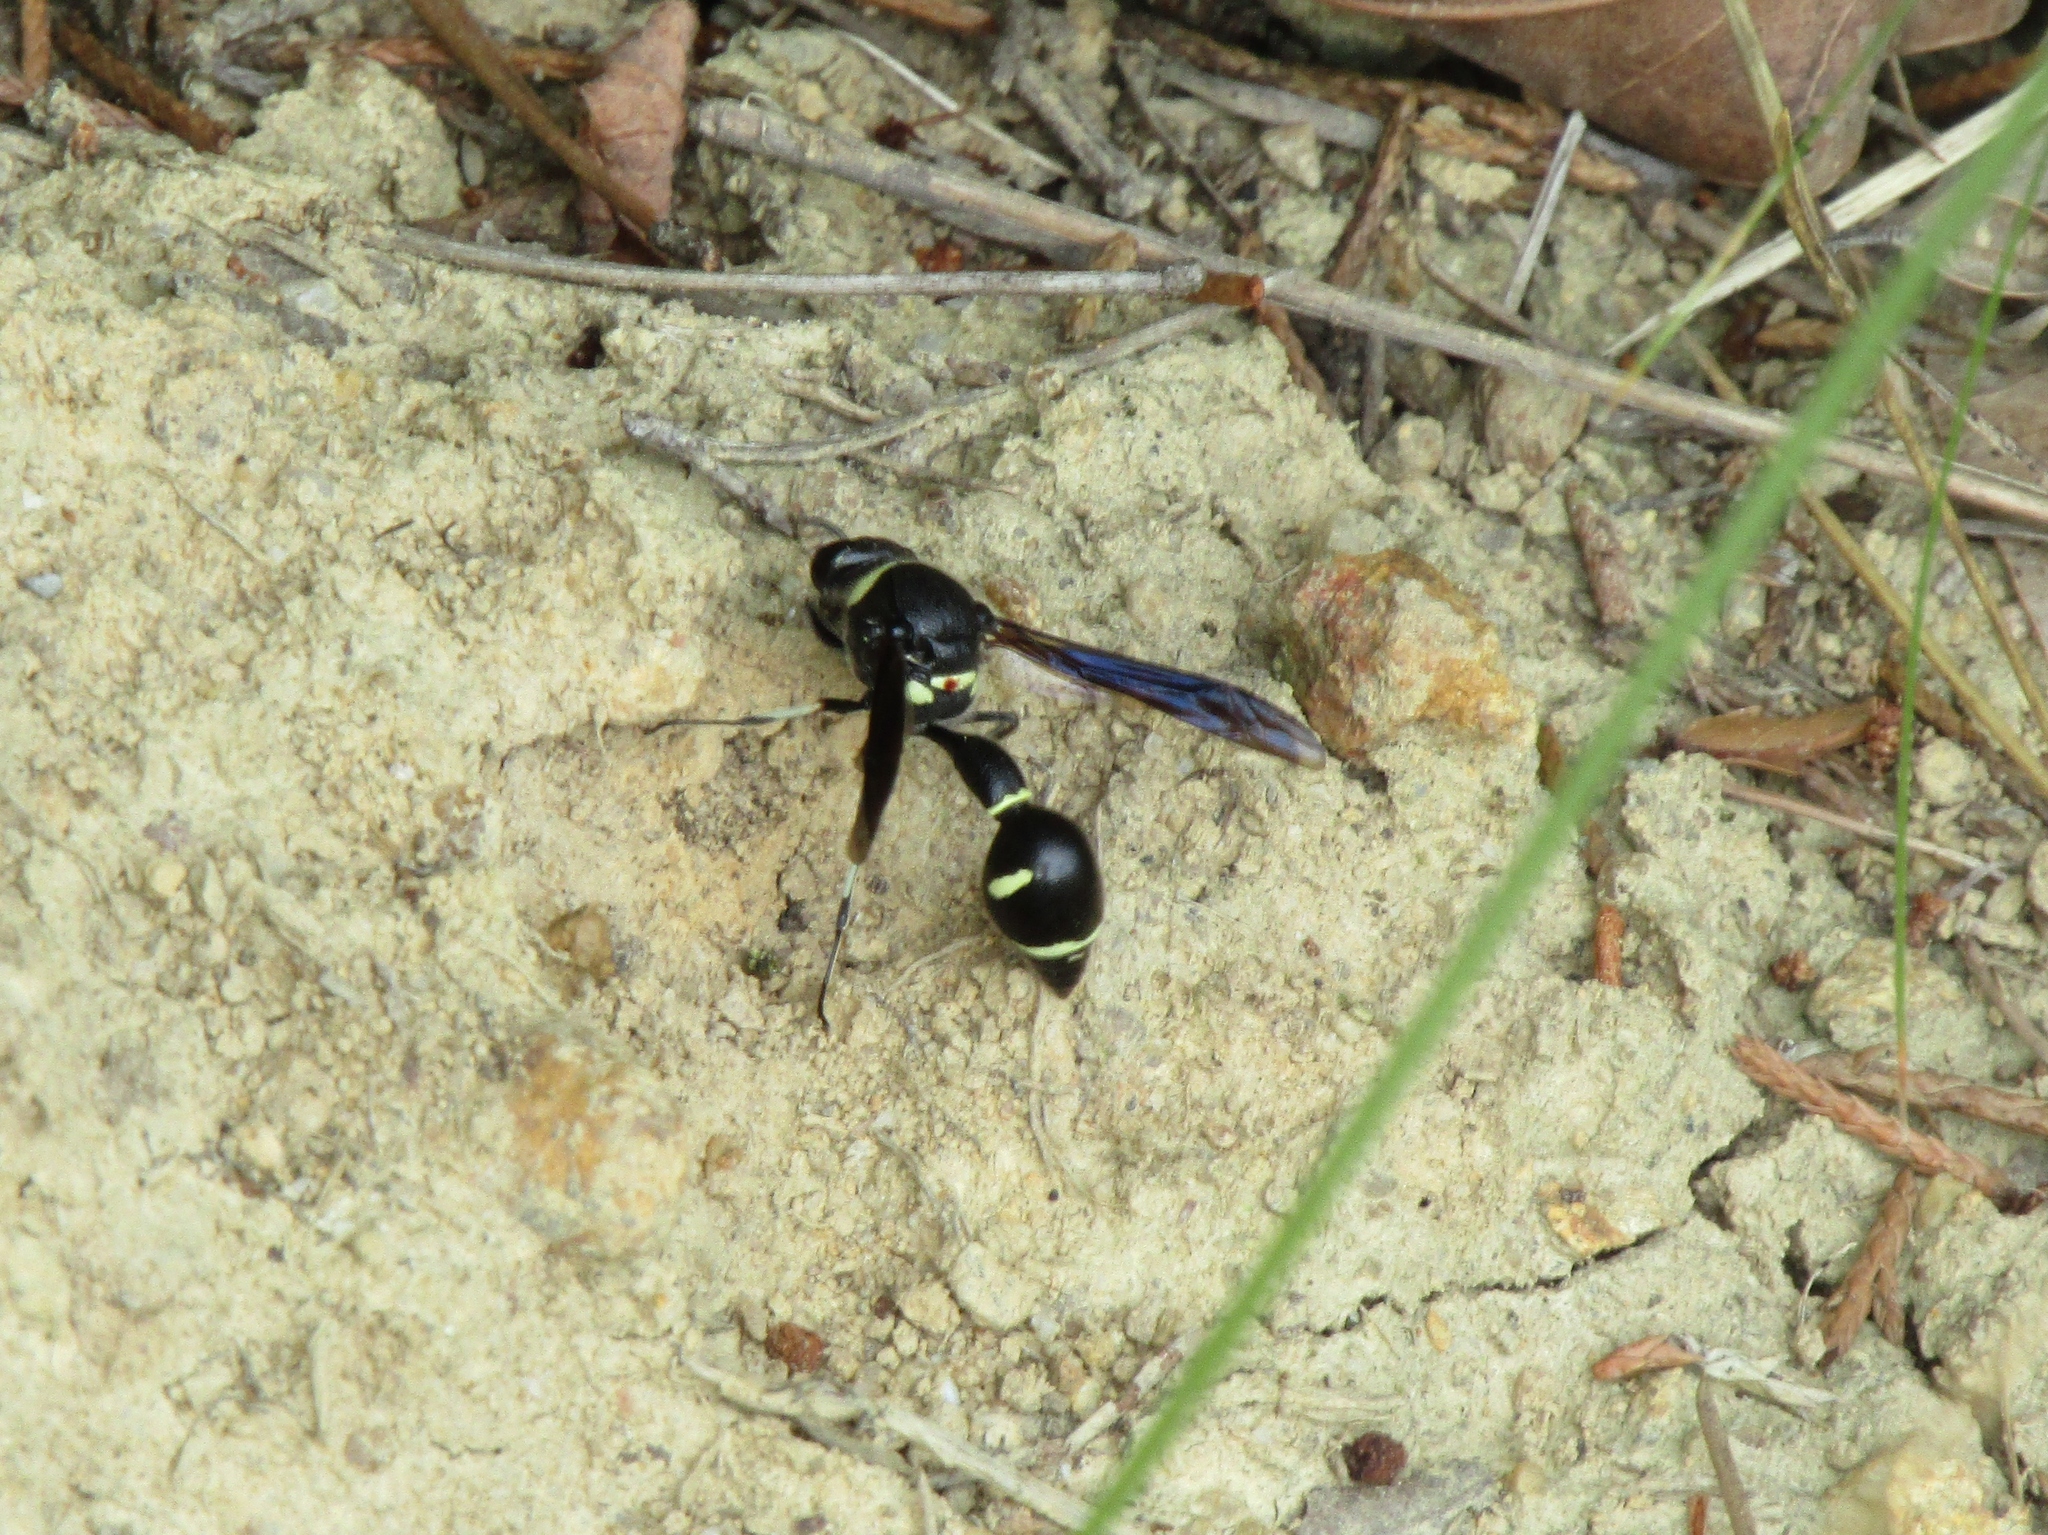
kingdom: Animalia
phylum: Arthropoda
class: Insecta
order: Hymenoptera
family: Vespidae
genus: Eumenes
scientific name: Eumenes fraternus
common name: Fraternal potter wasp
